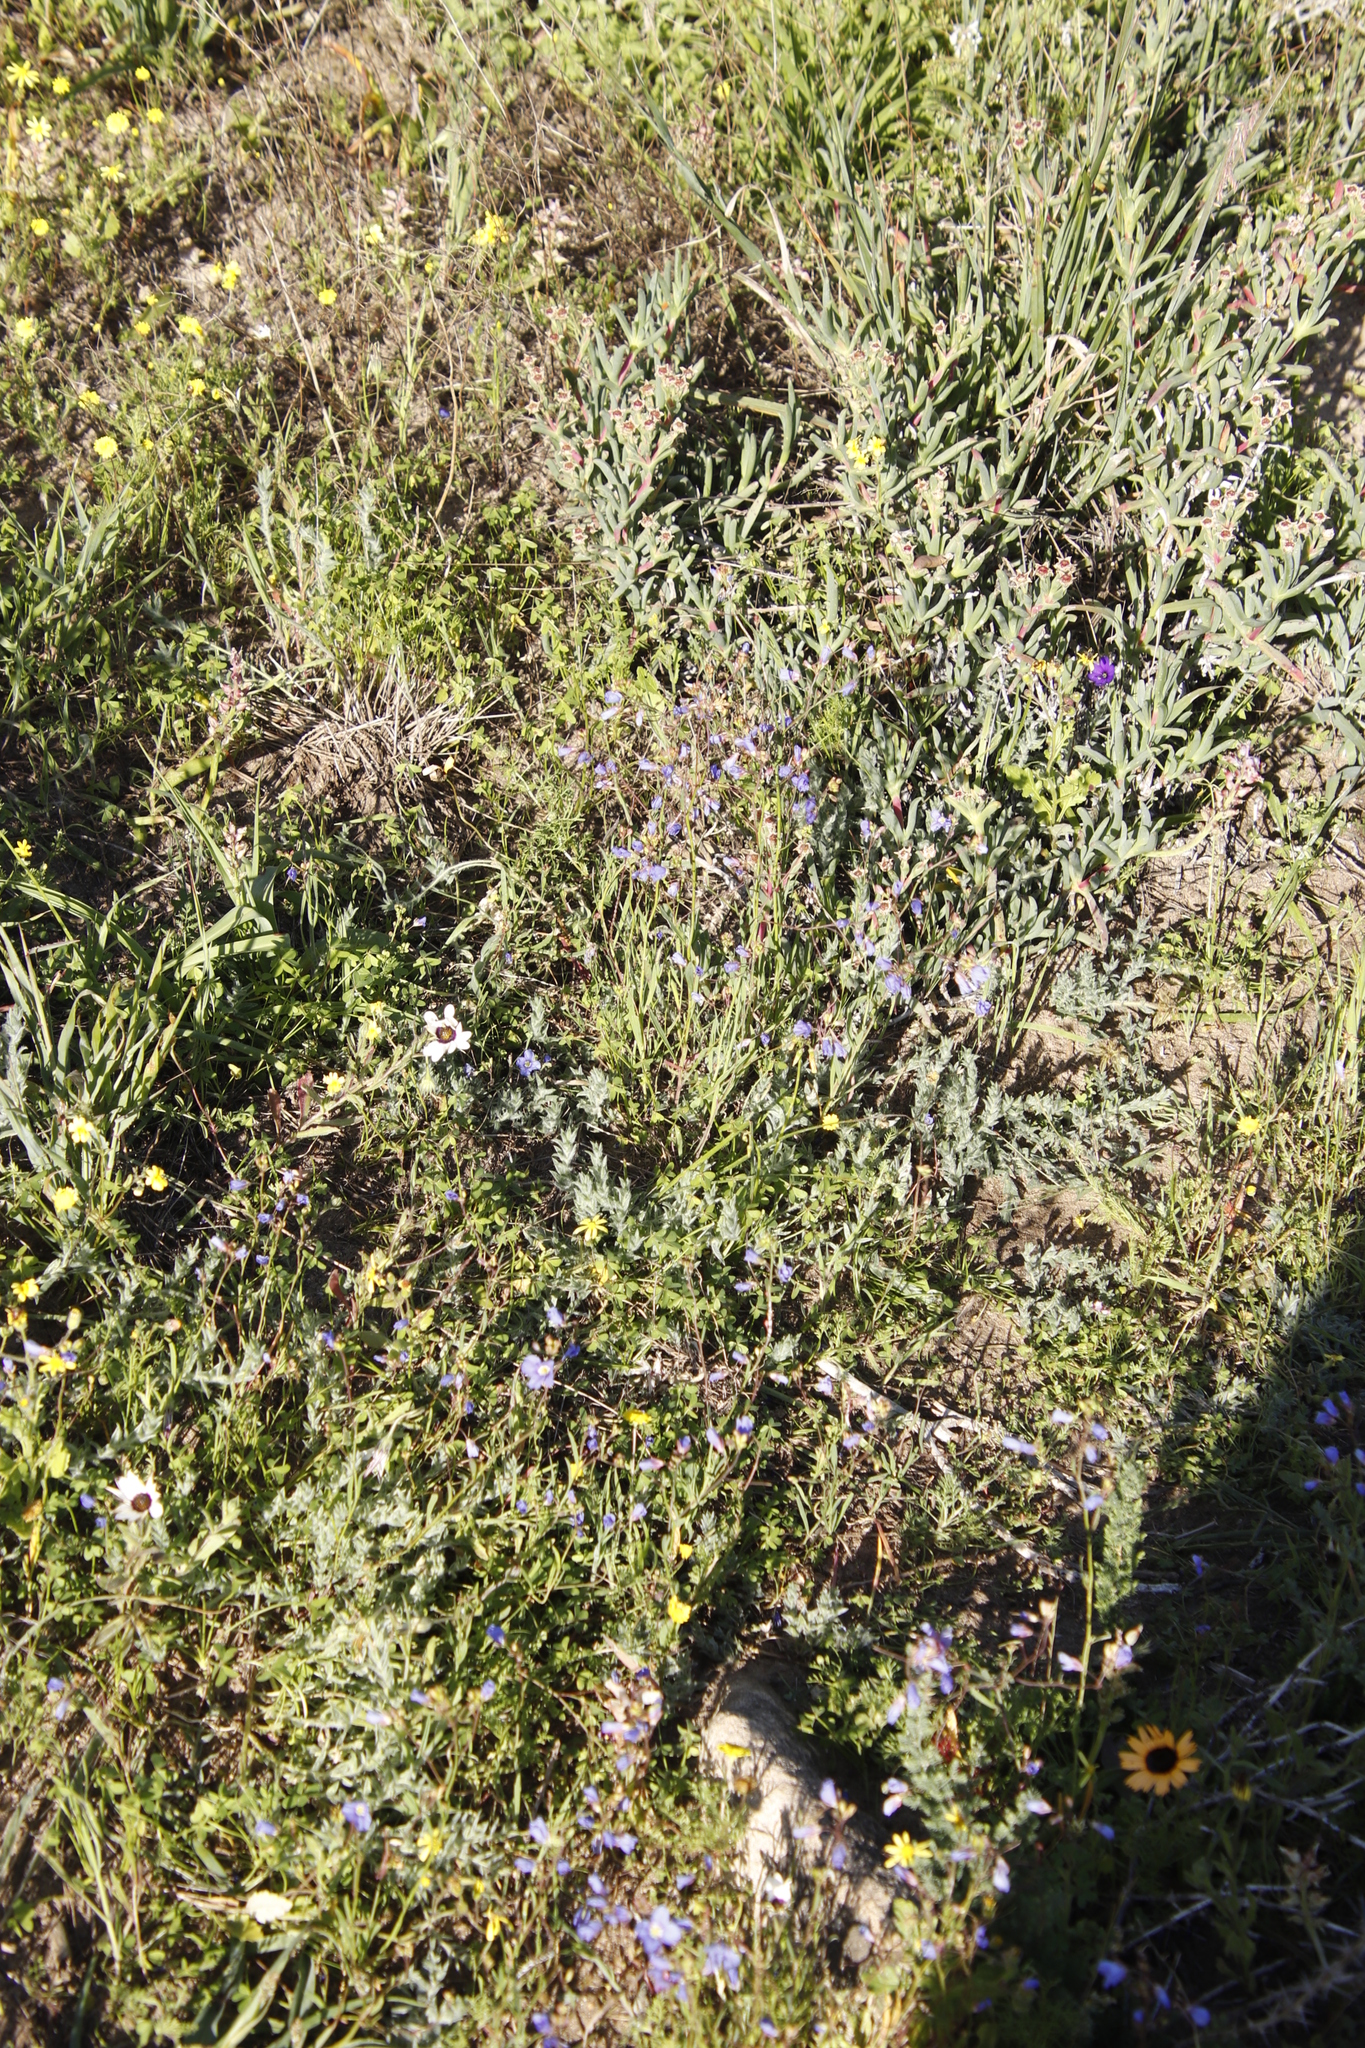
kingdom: Plantae
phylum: Tracheophyta
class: Magnoliopsida
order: Brassicales
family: Brassicaceae
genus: Heliophila
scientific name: Heliophila coronopifolia
